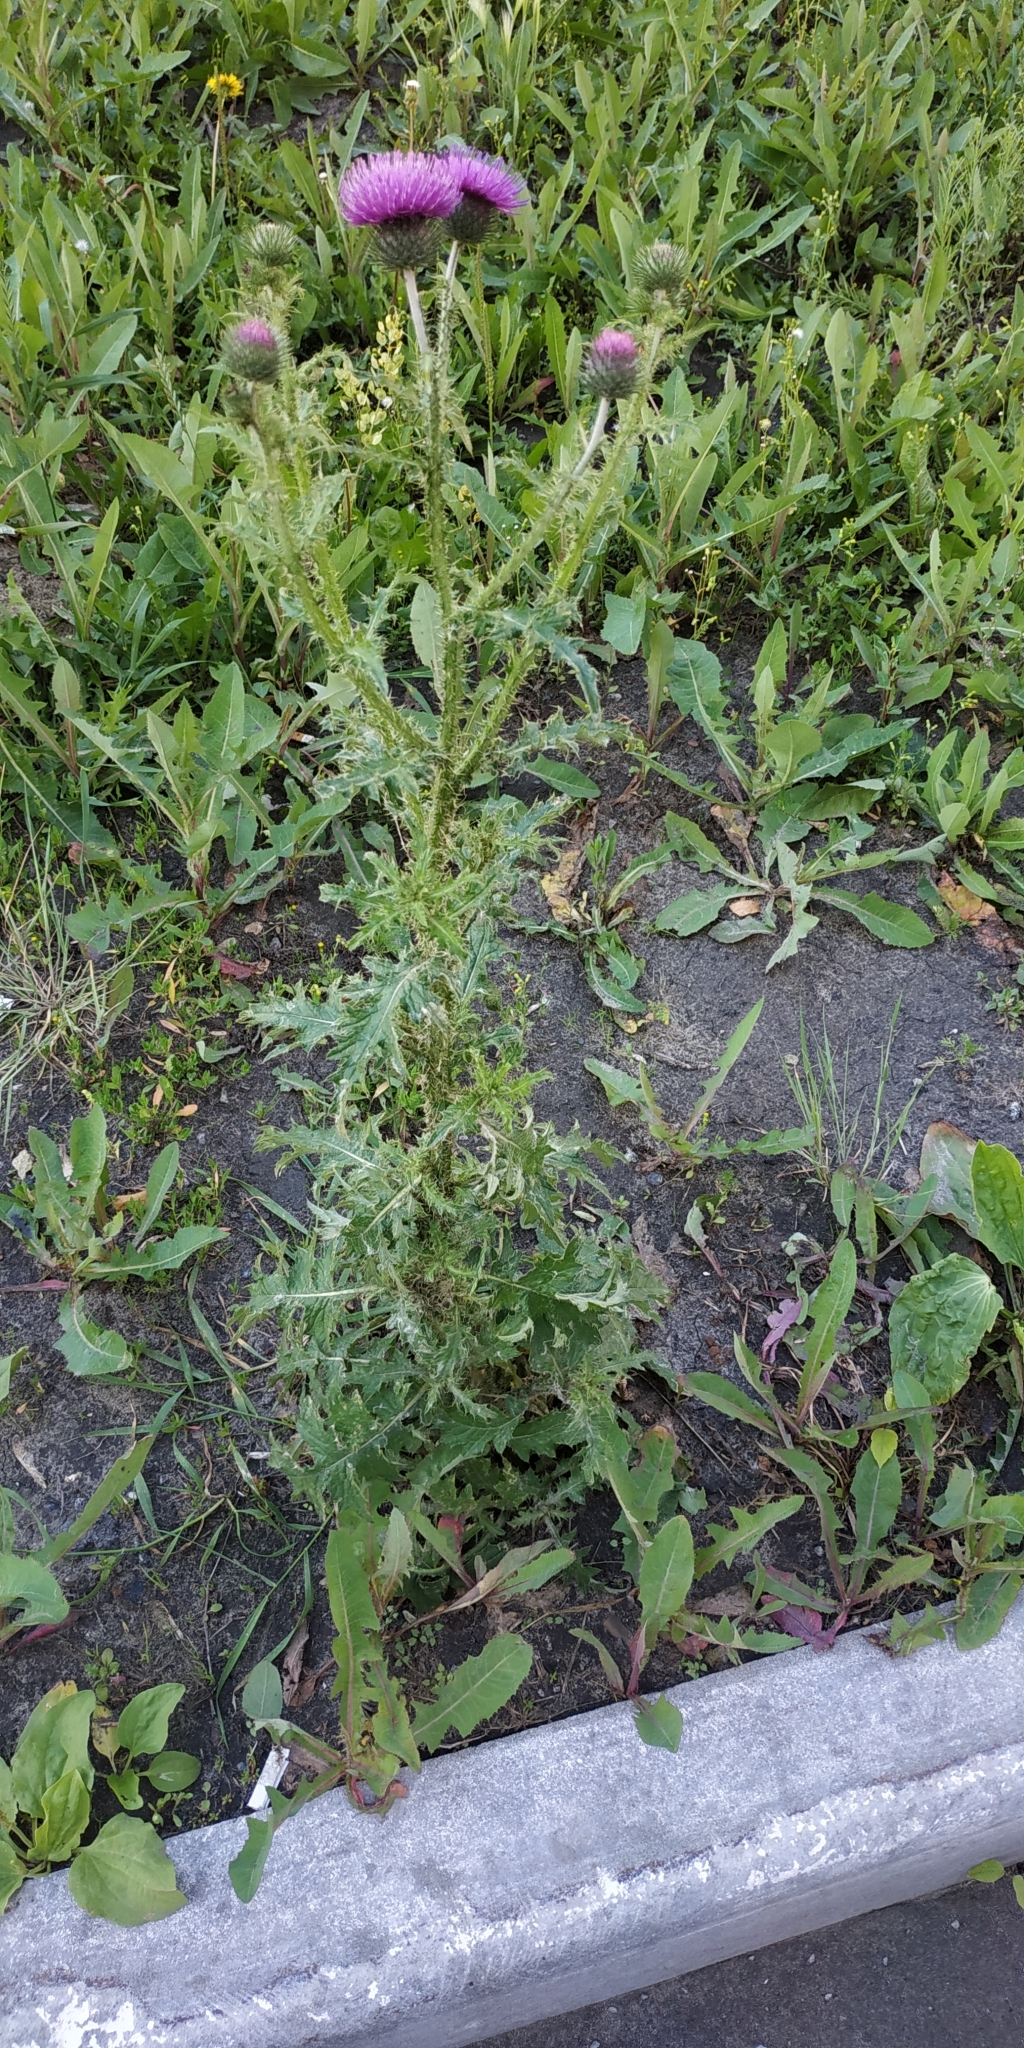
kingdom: Plantae
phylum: Tracheophyta
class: Magnoliopsida
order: Asterales
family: Asteraceae
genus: Carduus
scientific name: Carduus crispus
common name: Welted thistle
